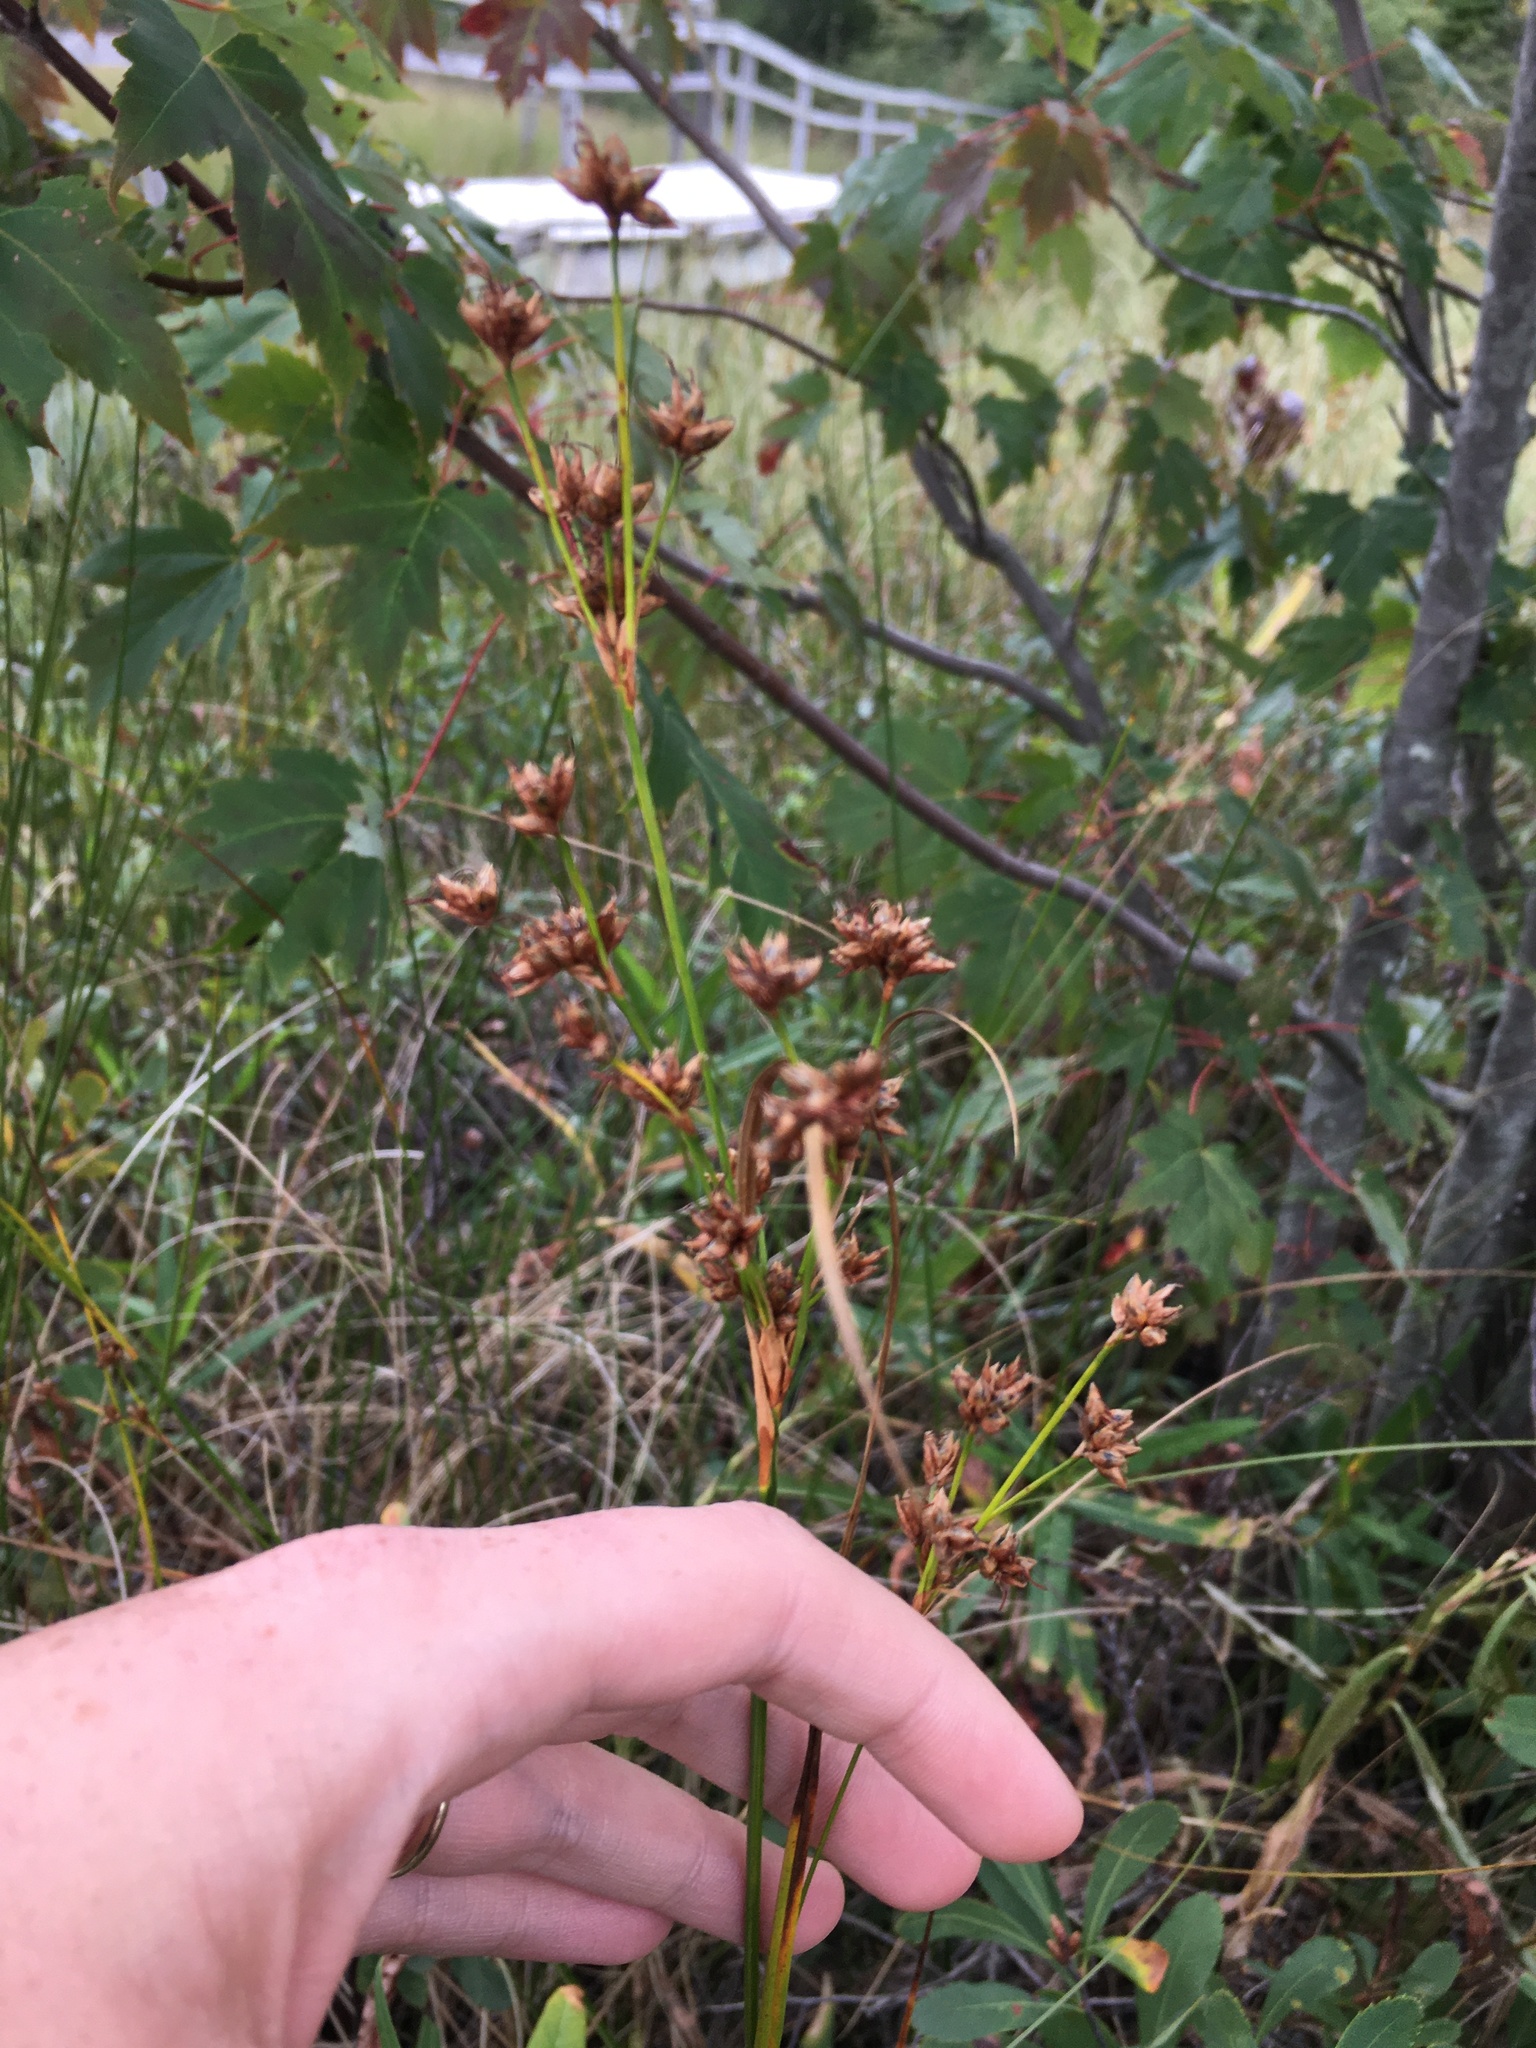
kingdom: Plantae
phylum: Tracheophyta
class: Liliopsida
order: Poales
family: Cyperaceae
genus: Cladium
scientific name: Cladium mariscoides
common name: Smooth sawgrass
